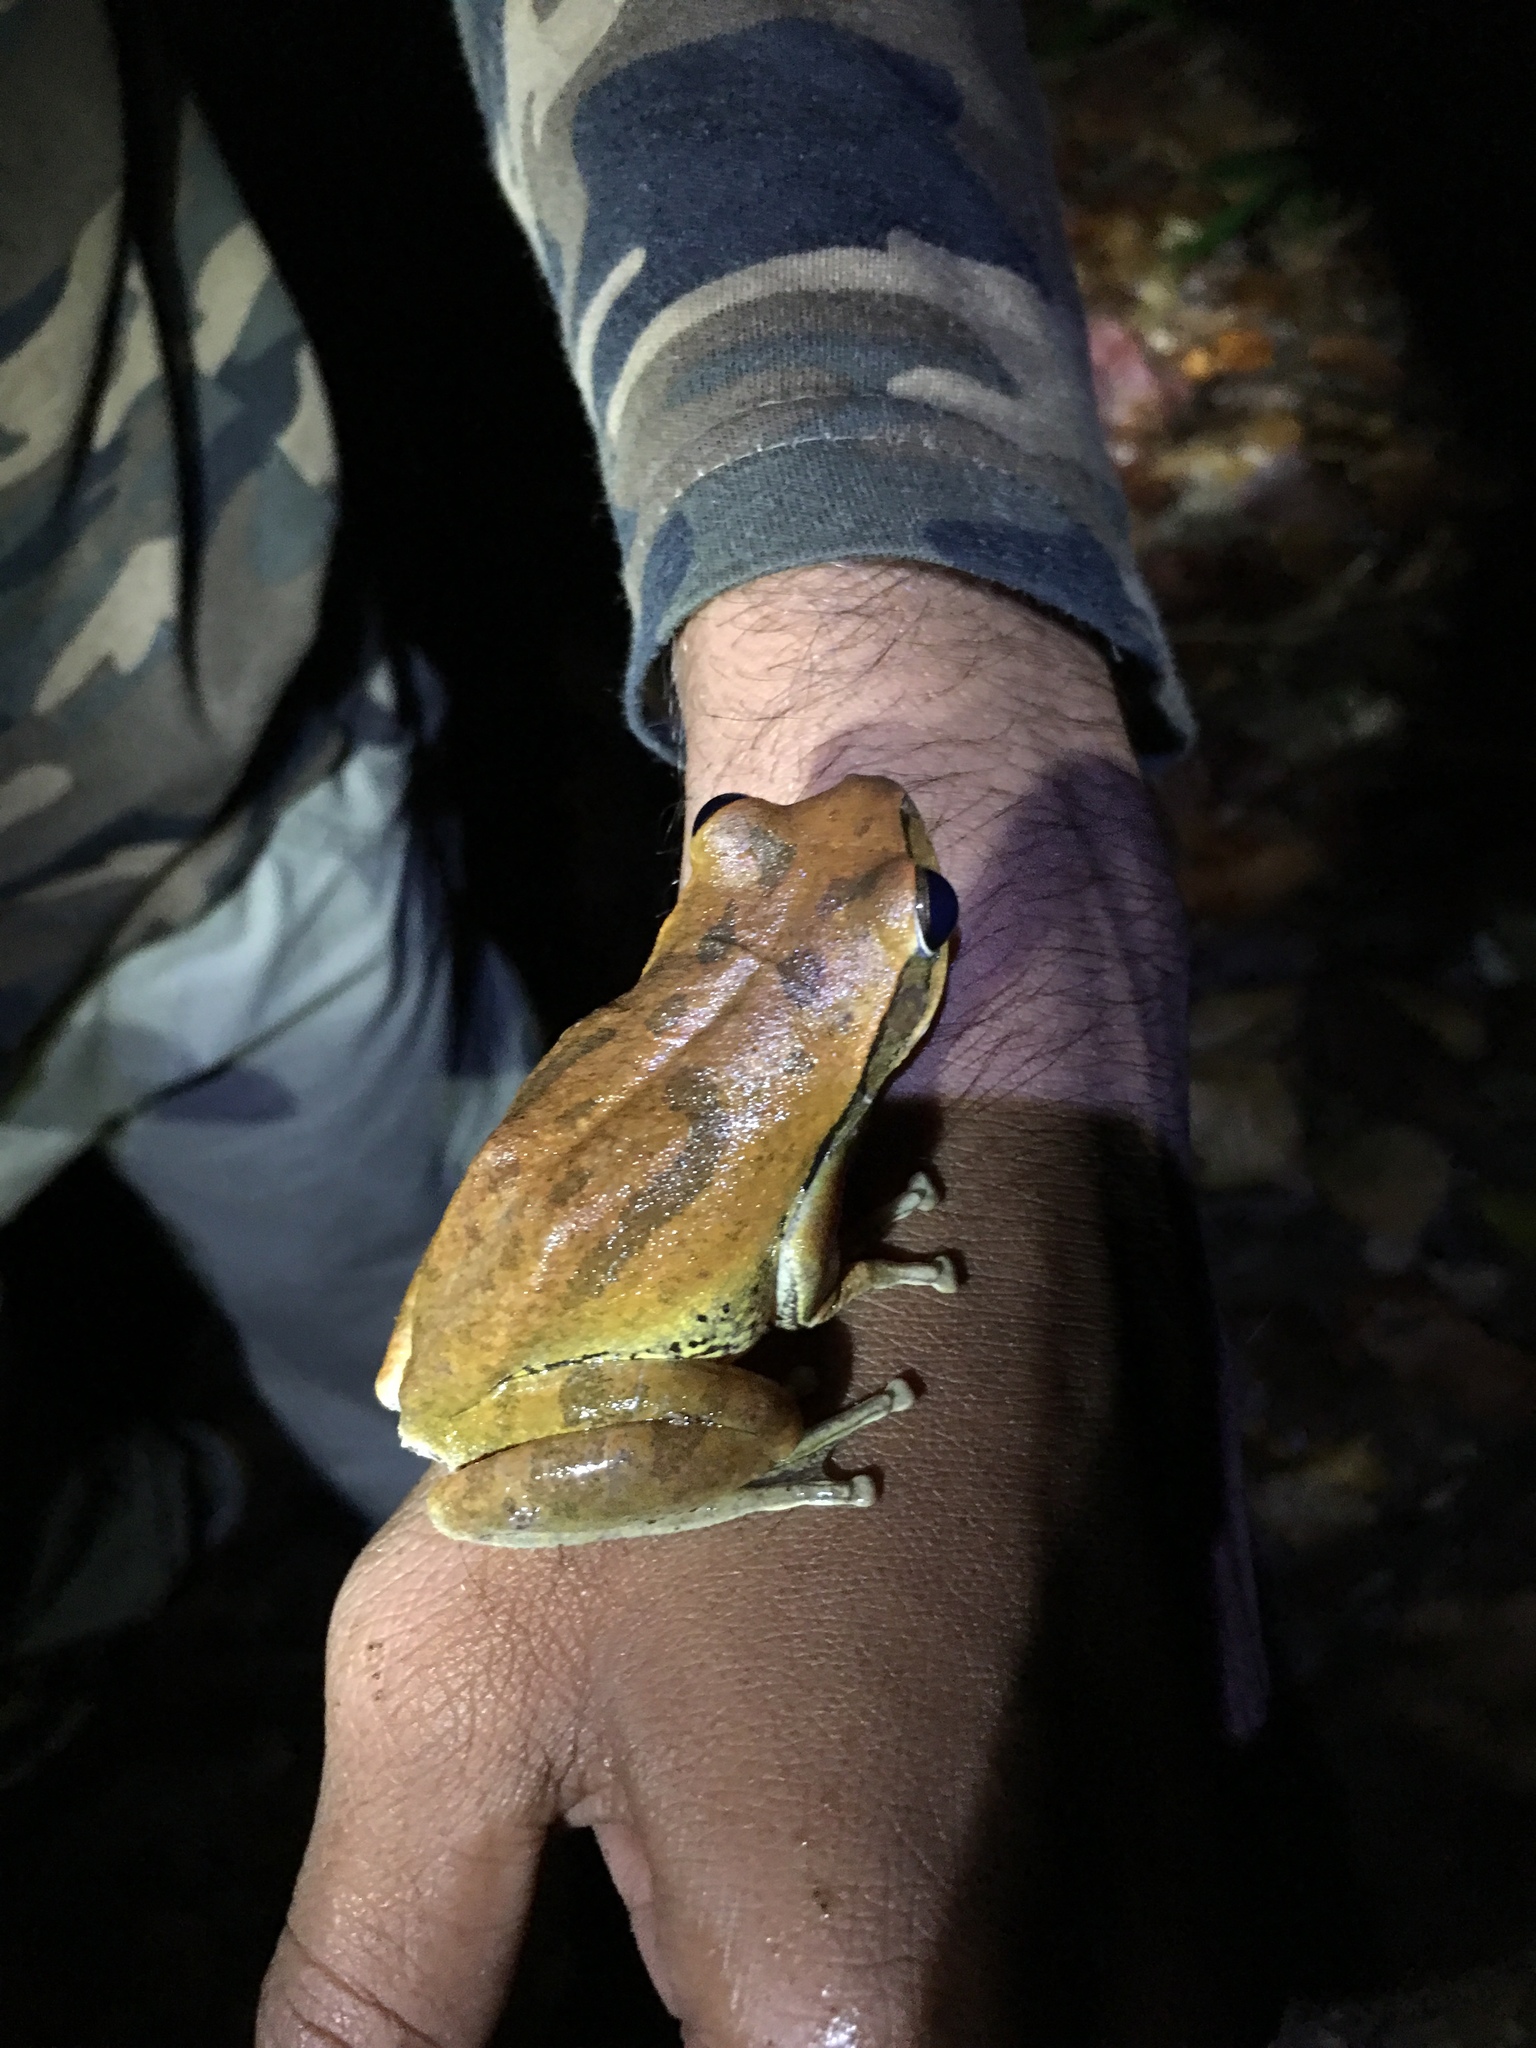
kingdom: Animalia
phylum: Chordata
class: Amphibia
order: Anura
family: Rhacophoridae
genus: Polypedates
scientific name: Polypedates maculatus
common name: Himalayan tree frog
